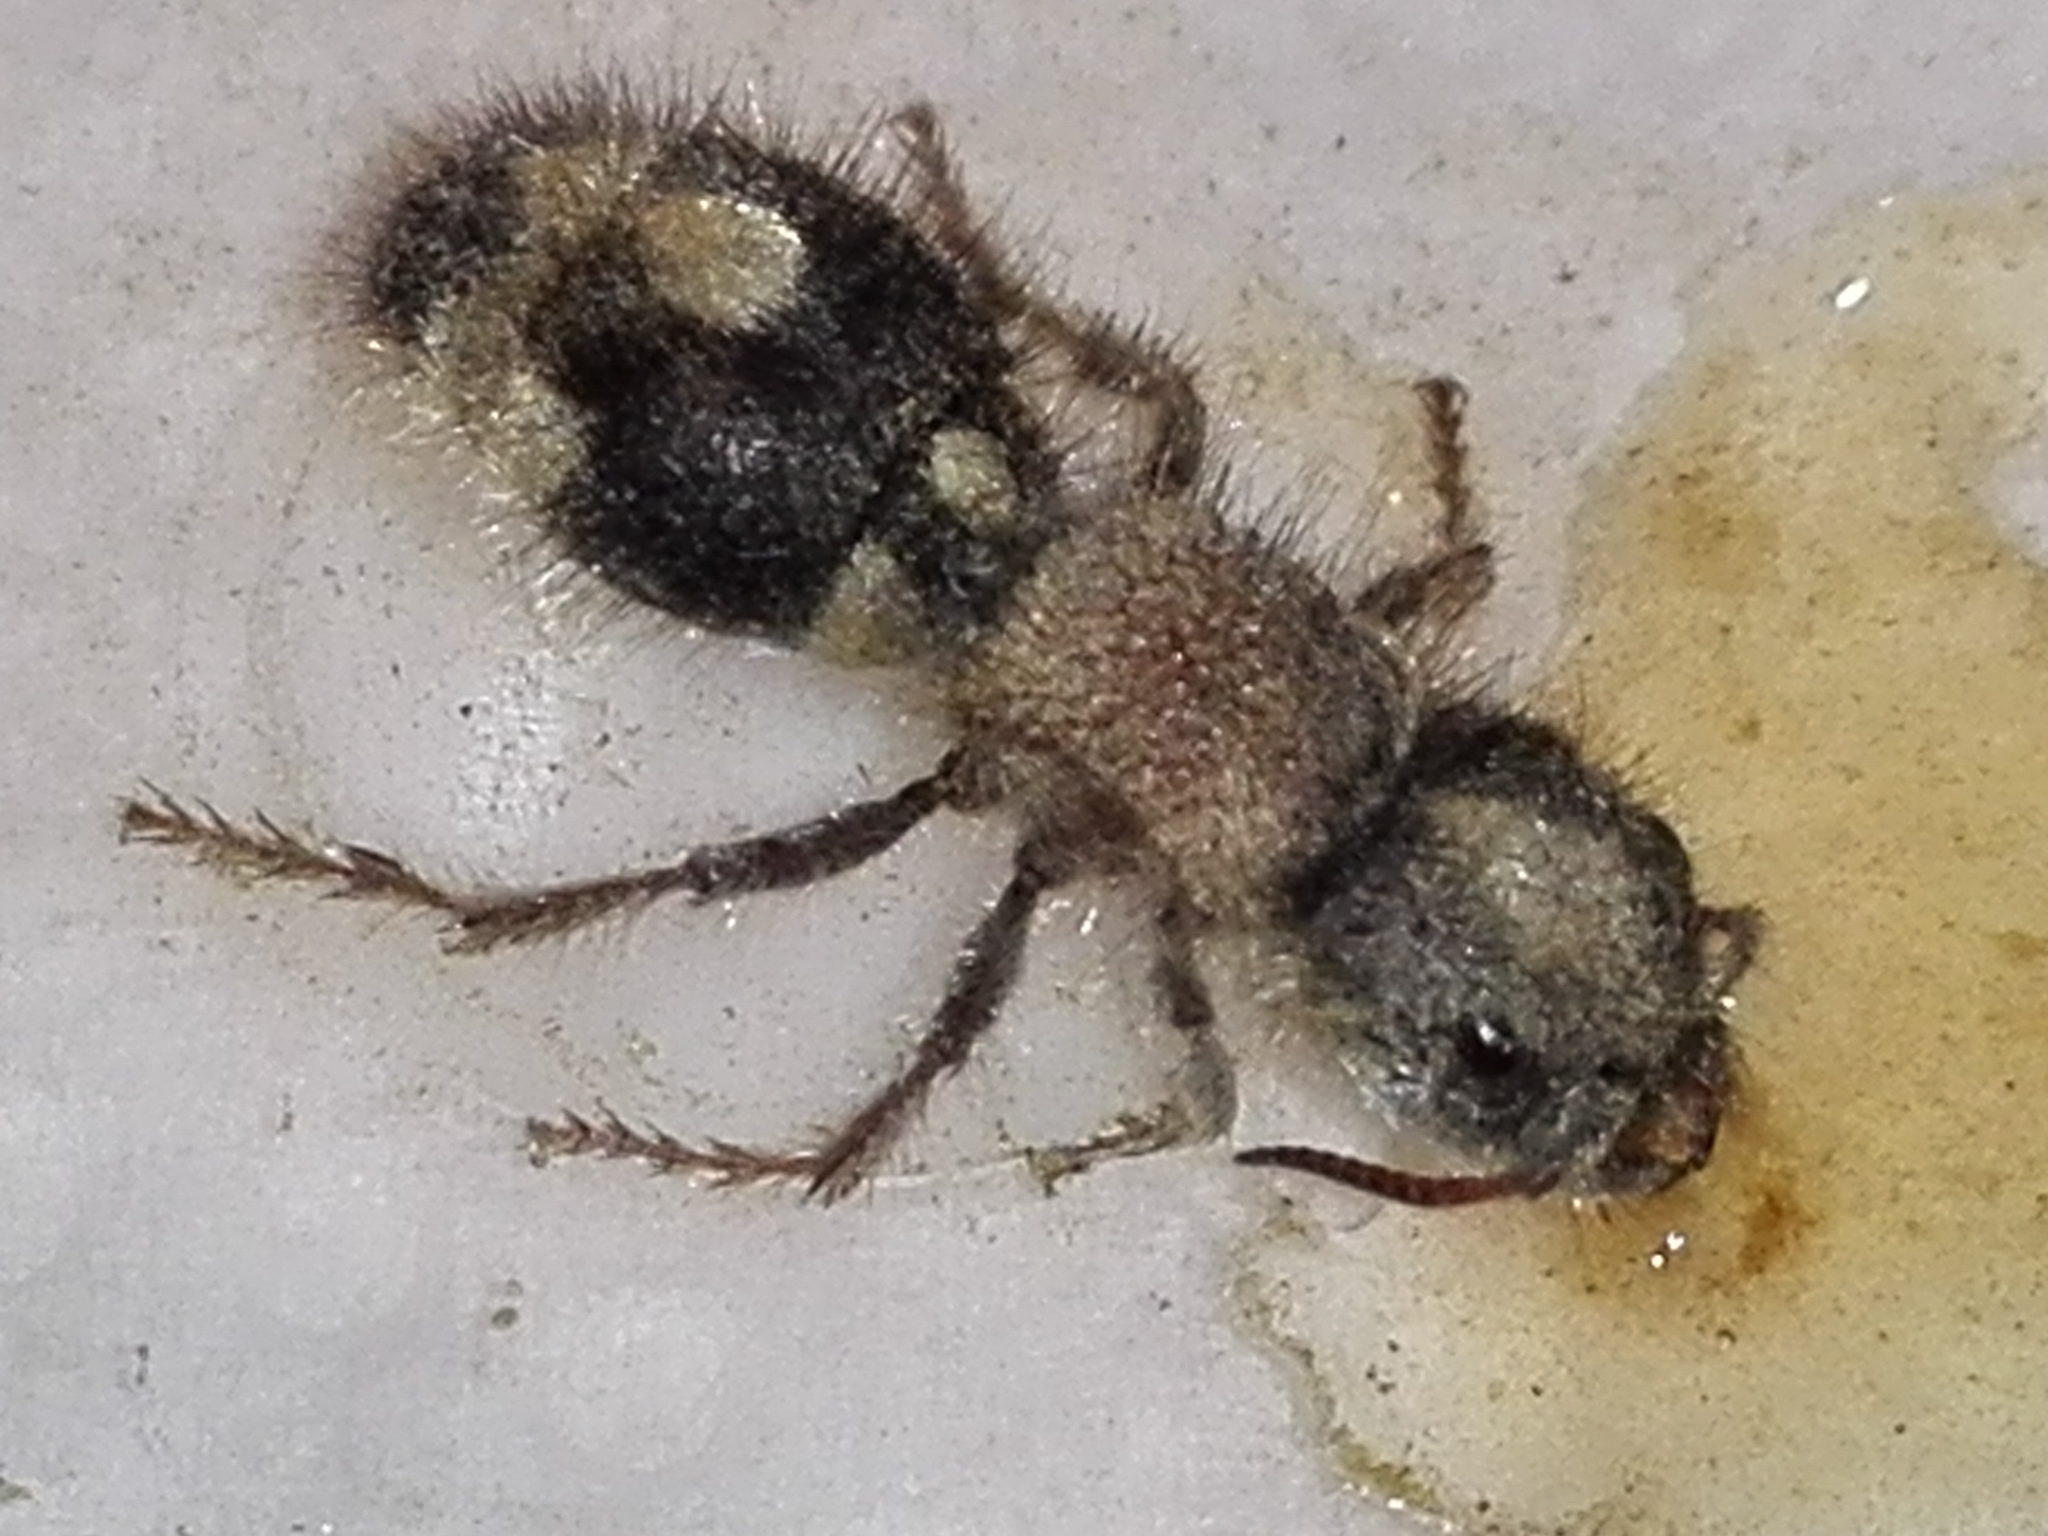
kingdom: Animalia
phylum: Arthropoda
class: Insecta
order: Hymenoptera
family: Mutillidae
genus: Ronisia
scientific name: Ronisia barbarula
